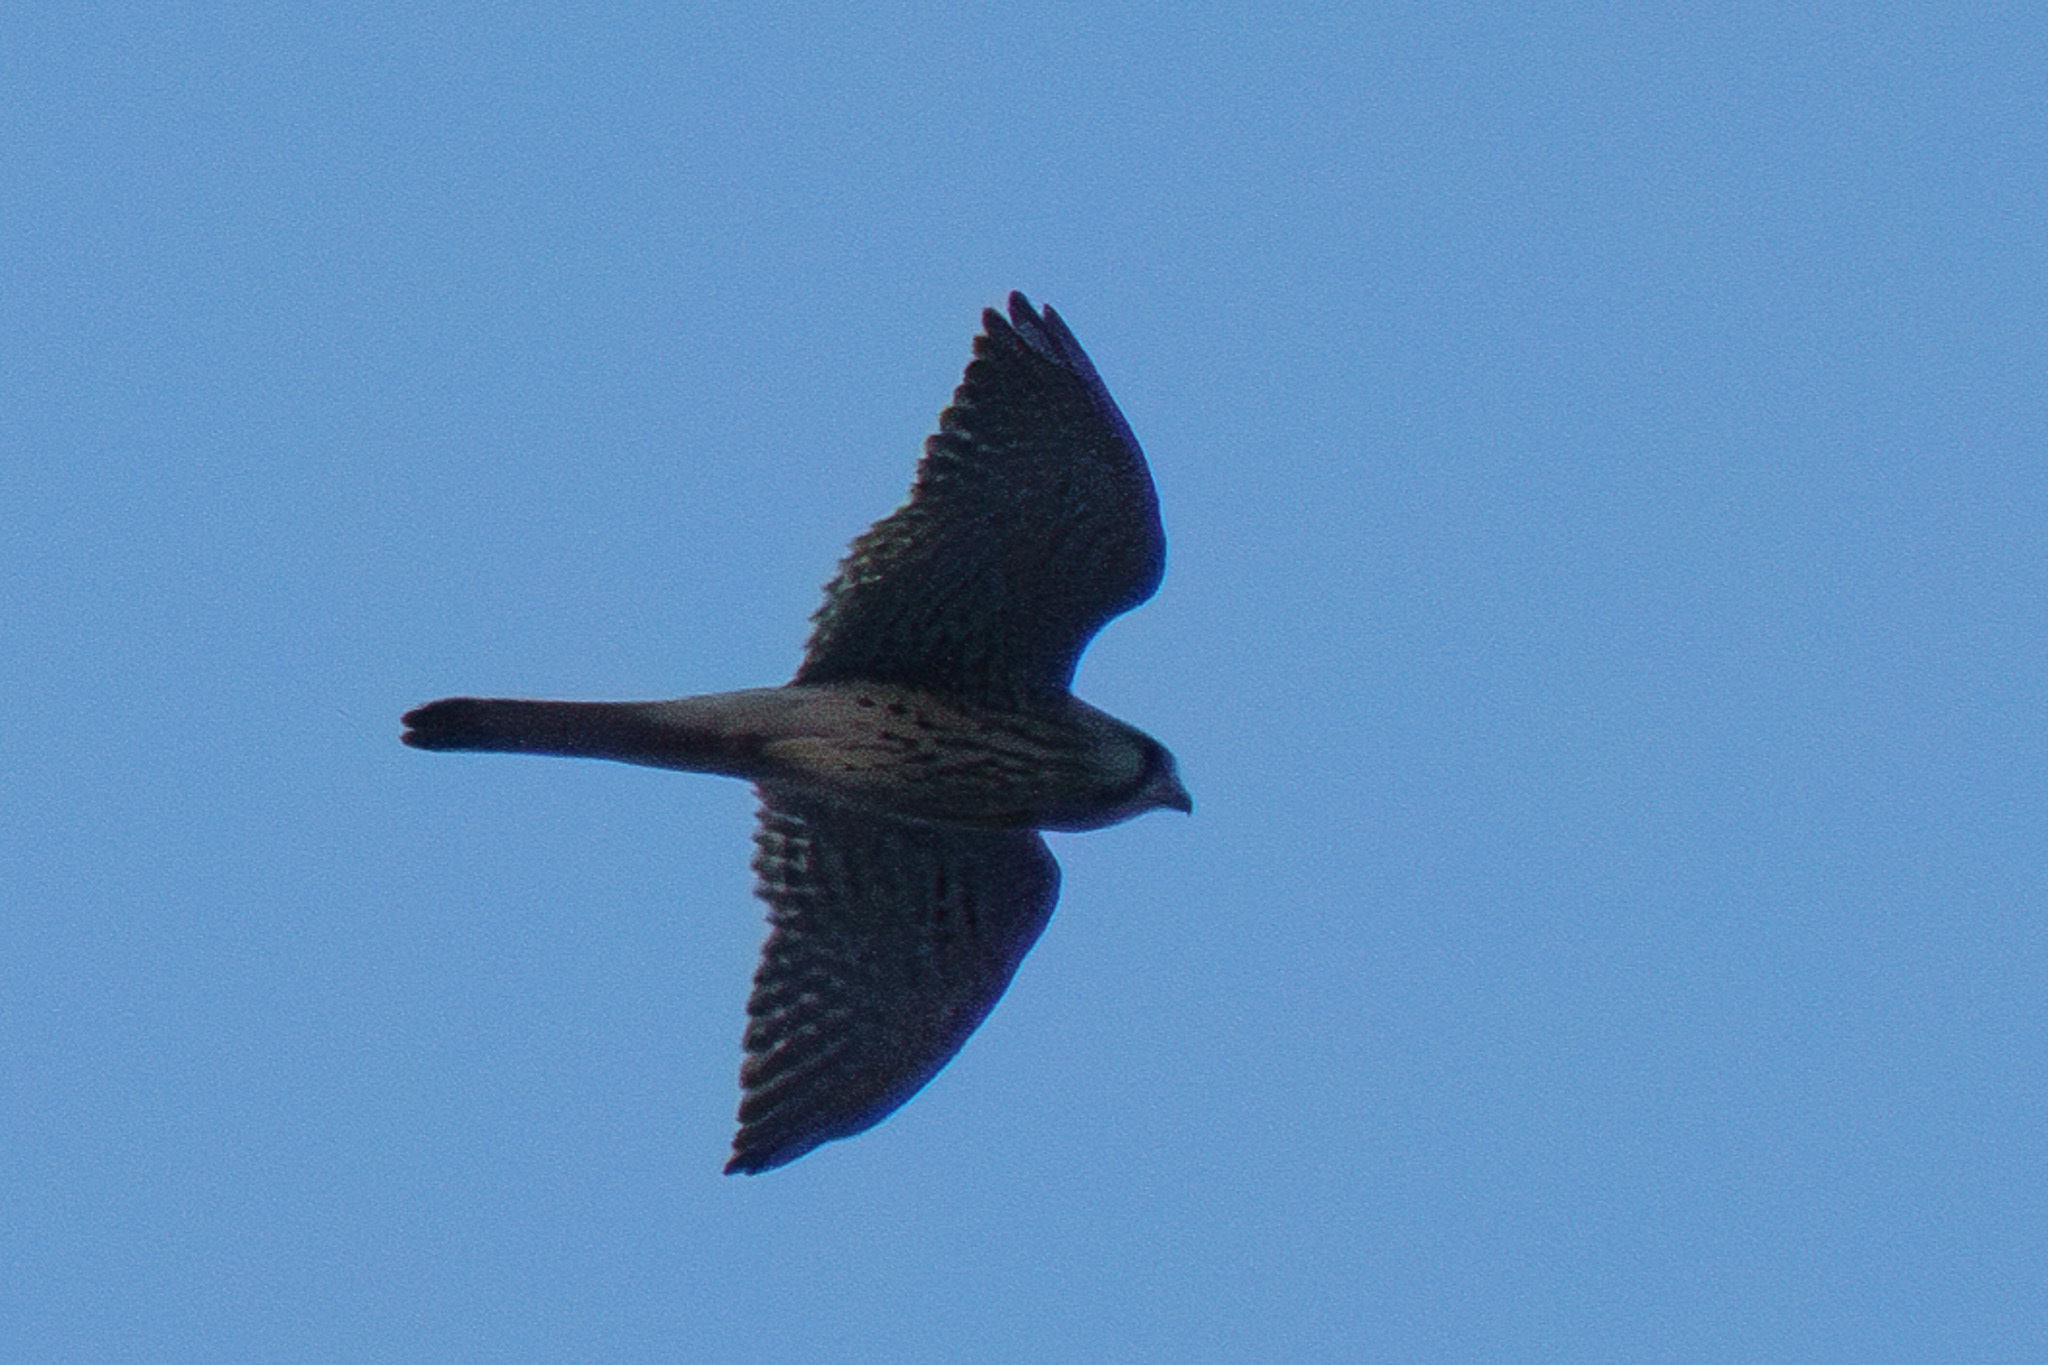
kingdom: Animalia
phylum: Chordata
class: Aves
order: Falconiformes
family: Falconidae
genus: Falco
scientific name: Falco tinnunculus
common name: Common kestrel
